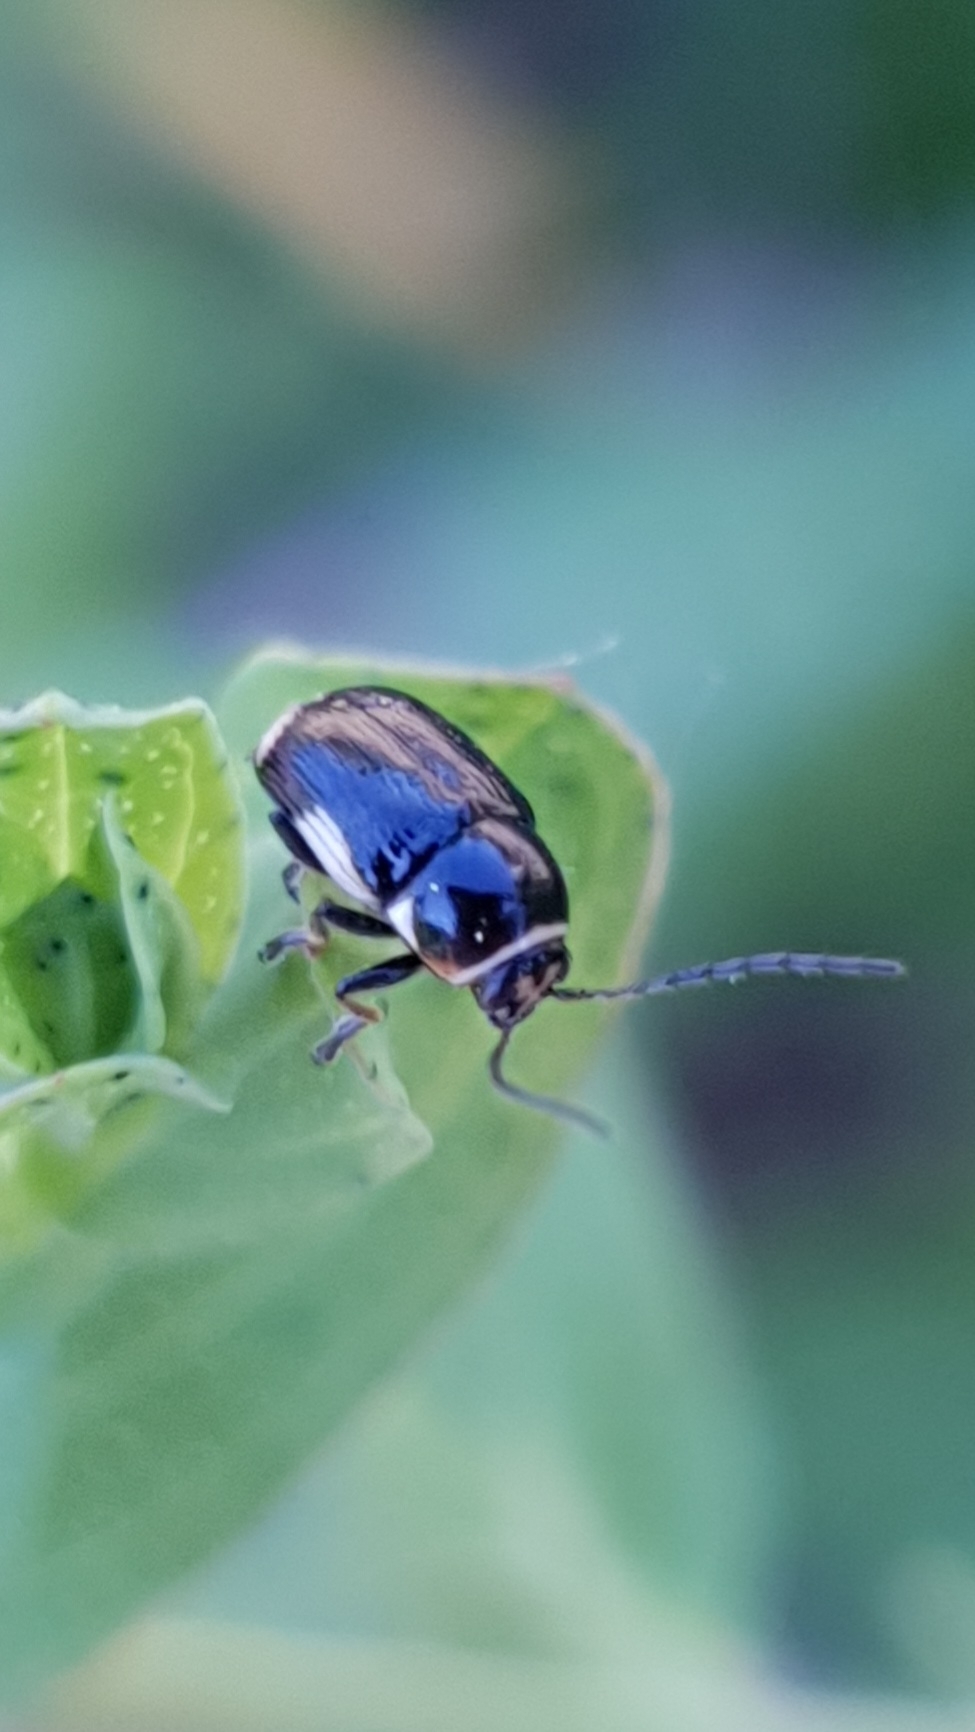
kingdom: Animalia
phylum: Arthropoda
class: Insecta
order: Coleoptera
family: Chrysomelidae
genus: Cryptocephalus
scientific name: Cryptocephalus moraei
